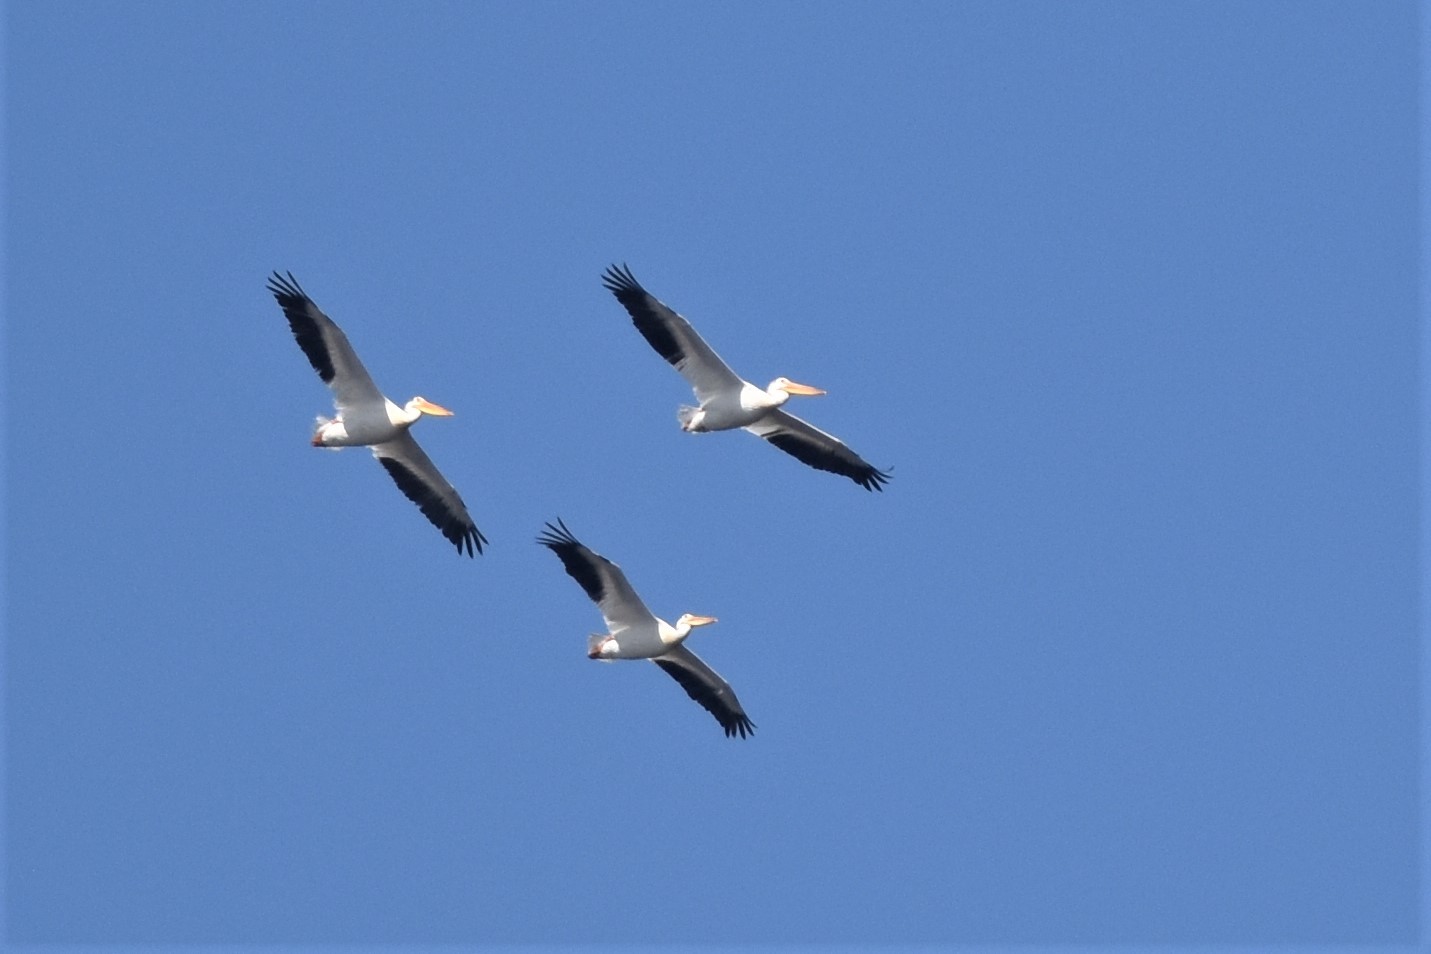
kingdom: Animalia
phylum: Chordata
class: Aves
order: Pelecaniformes
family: Pelecanidae
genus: Pelecanus
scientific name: Pelecanus erythrorhynchos
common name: American white pelican
